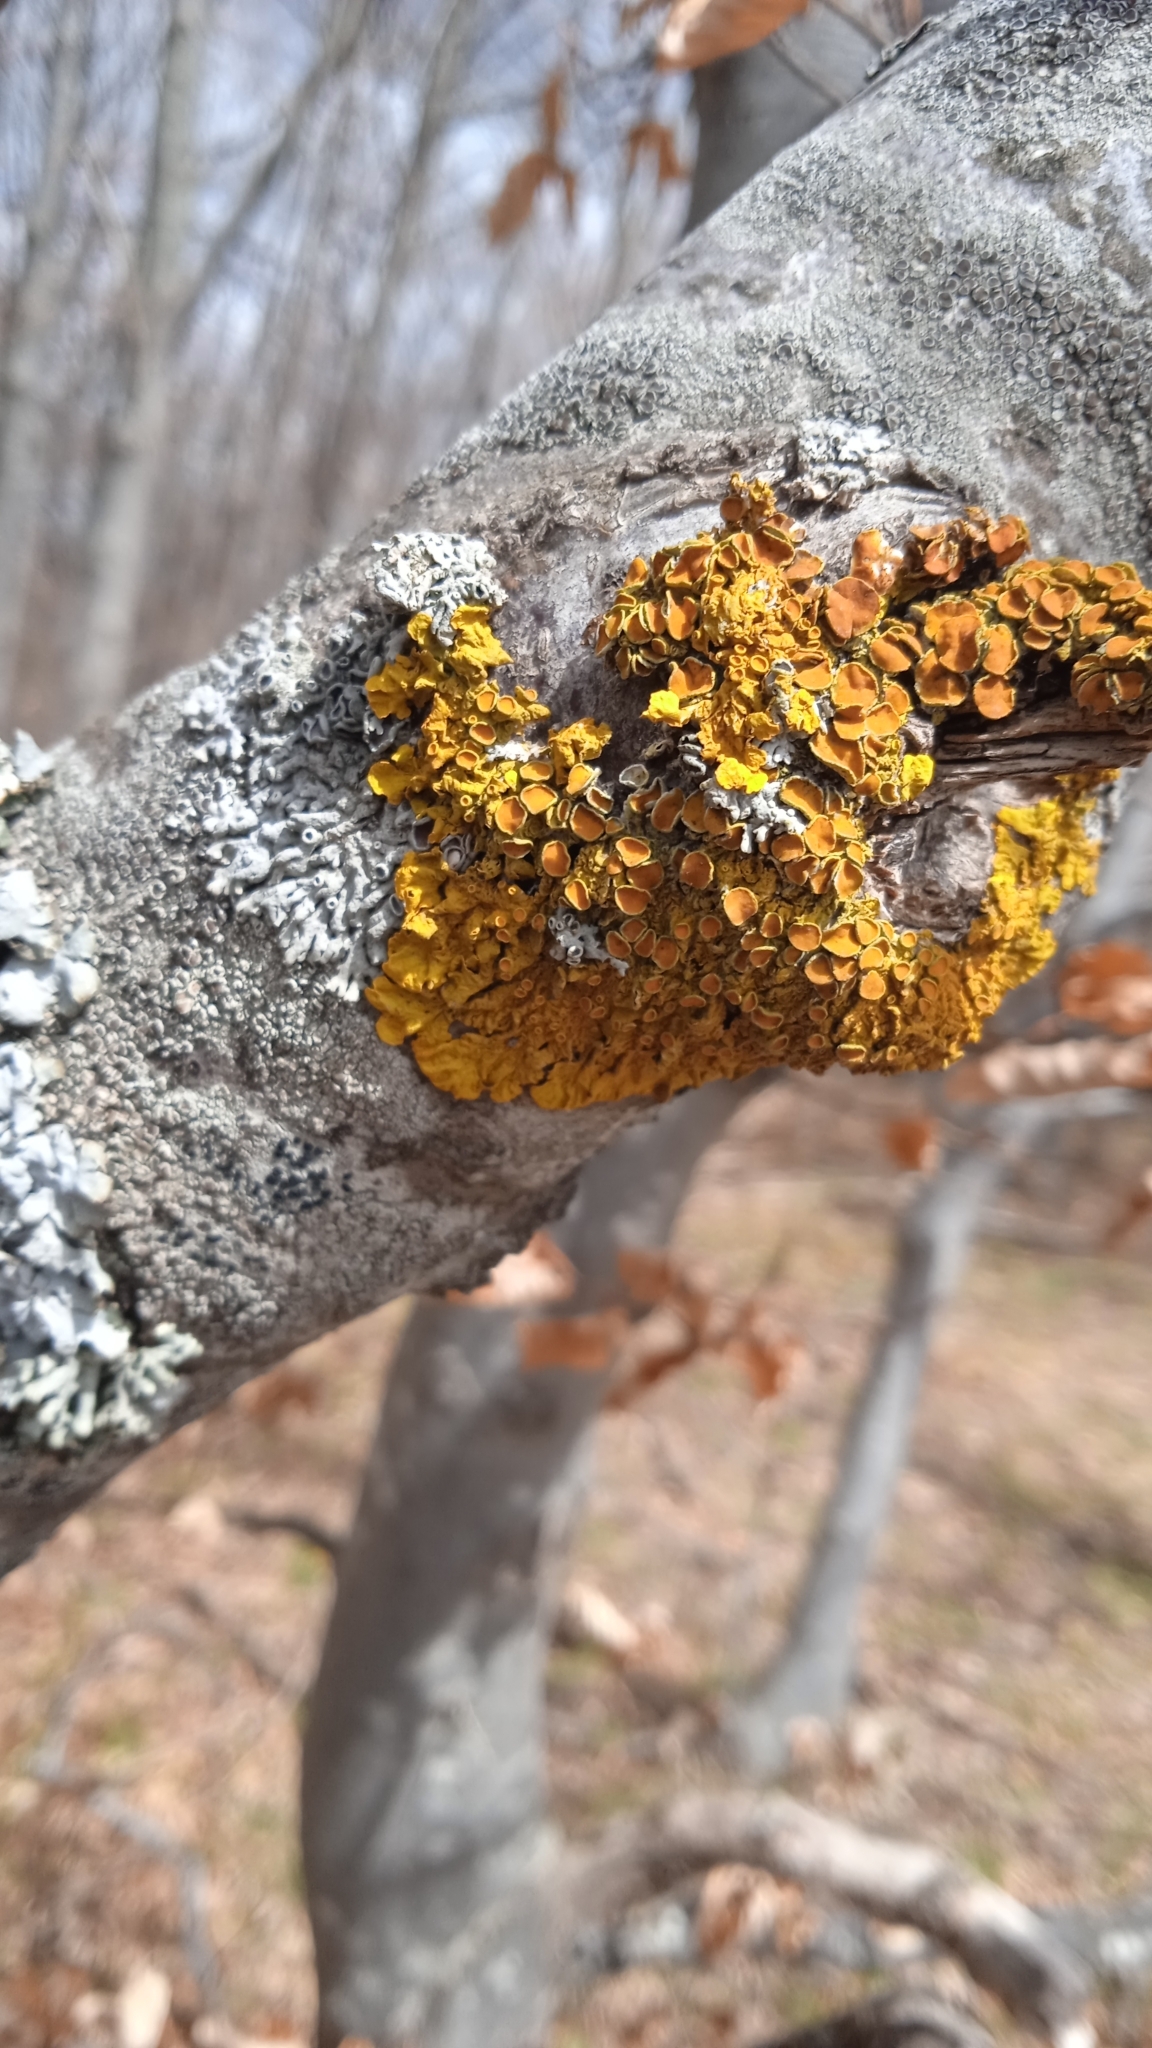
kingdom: Fungi
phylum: Ascomycota
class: Lecanoromycetes
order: Teloschistales
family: Teloschistaceae
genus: Xanthoria
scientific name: Xanthoria parietina
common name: Common orange lichen
